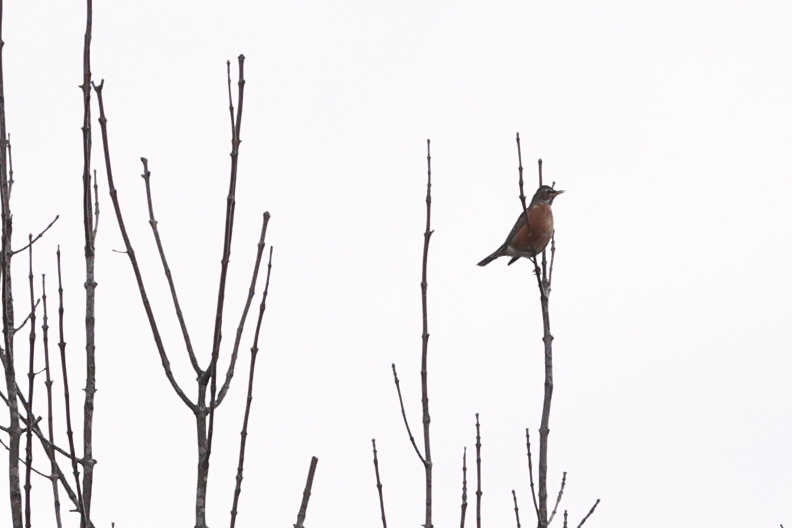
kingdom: Animalia
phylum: Chordata
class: Aves
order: Passeriformes
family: Turdidae
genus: Turdus
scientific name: Turdus migratorius
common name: American robin
